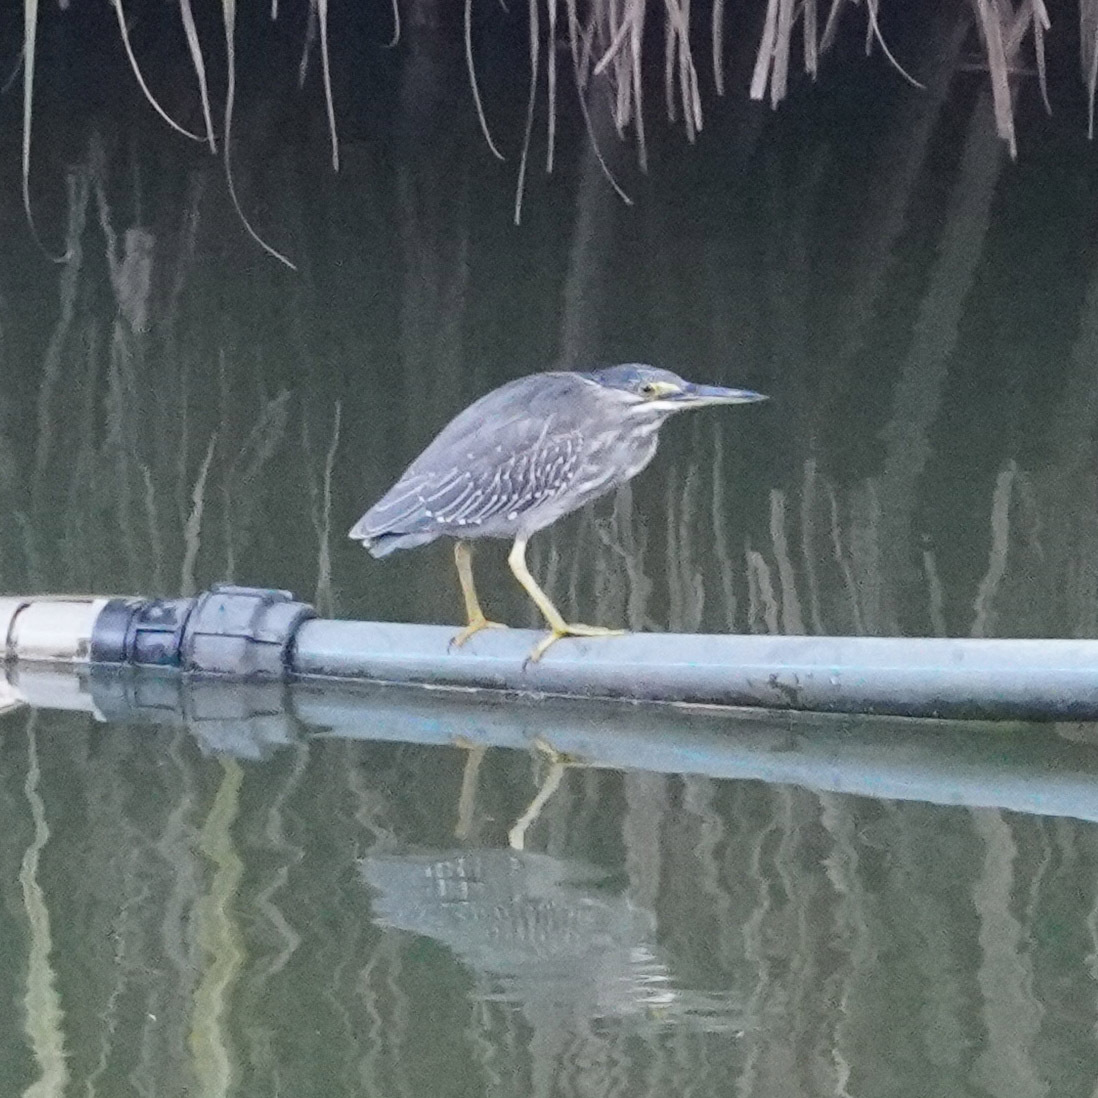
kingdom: Animalia
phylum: Chordata
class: Aves
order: Pelecaniformes
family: Ardeidae
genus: Butorides
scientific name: Butorides striata
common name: Striated heron
